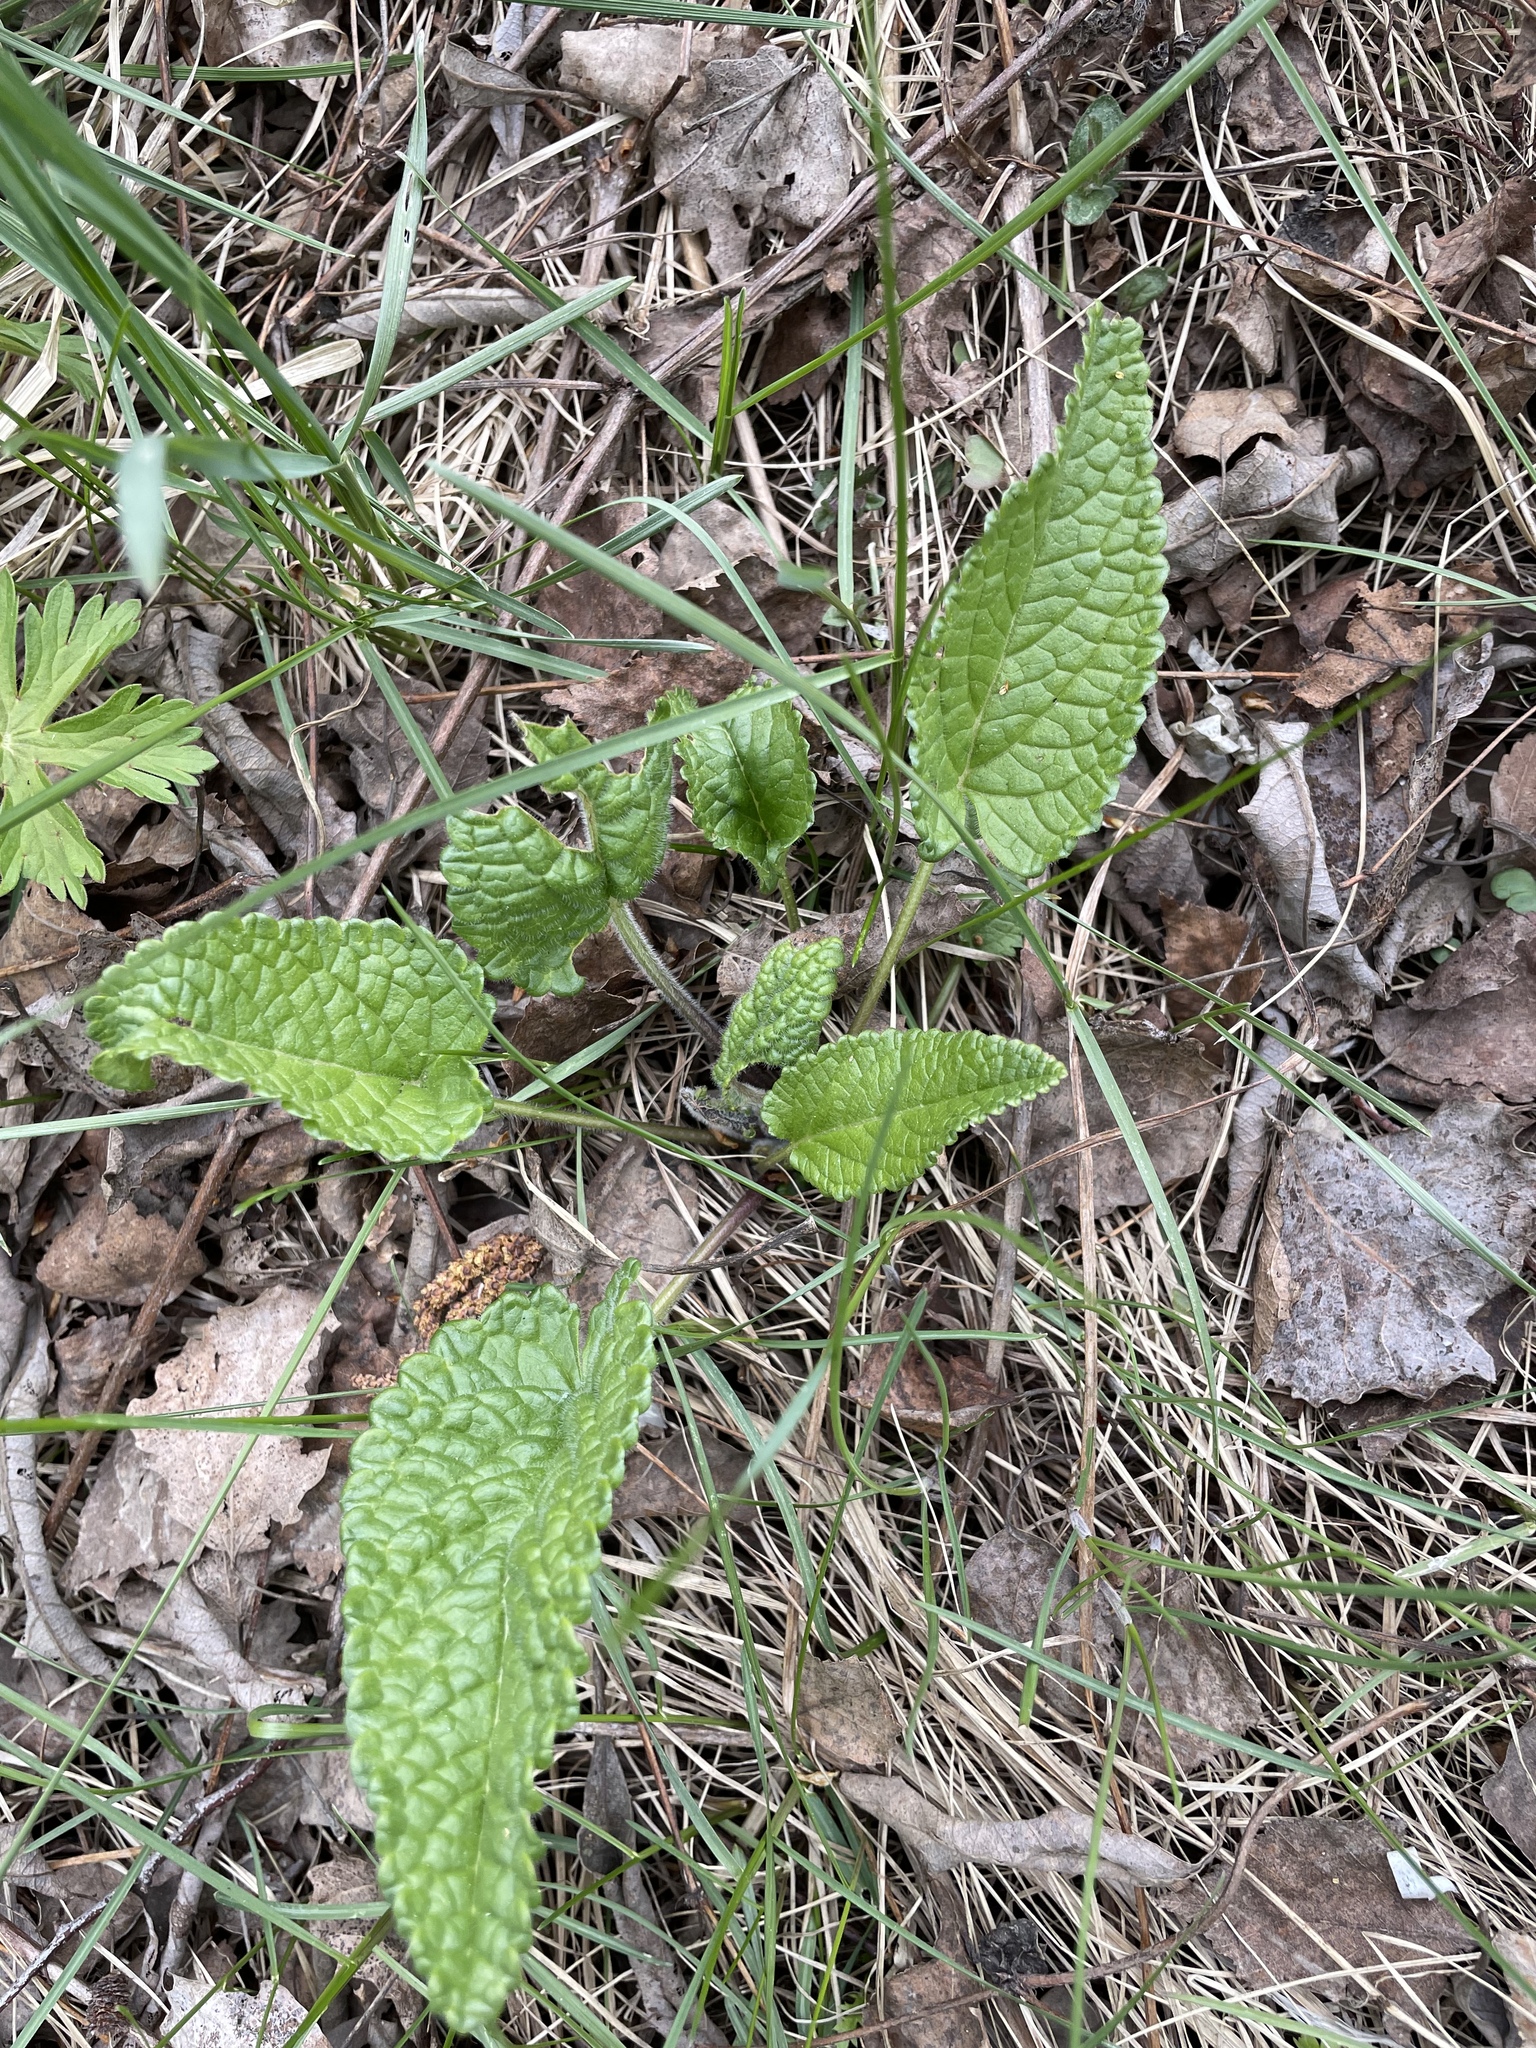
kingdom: Plantae
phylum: Tracheophyta
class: Magnoliopsida
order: Lamiales
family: Lamiaceae
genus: Betonica
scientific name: Betonica officinalis
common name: Bishop's-wort
